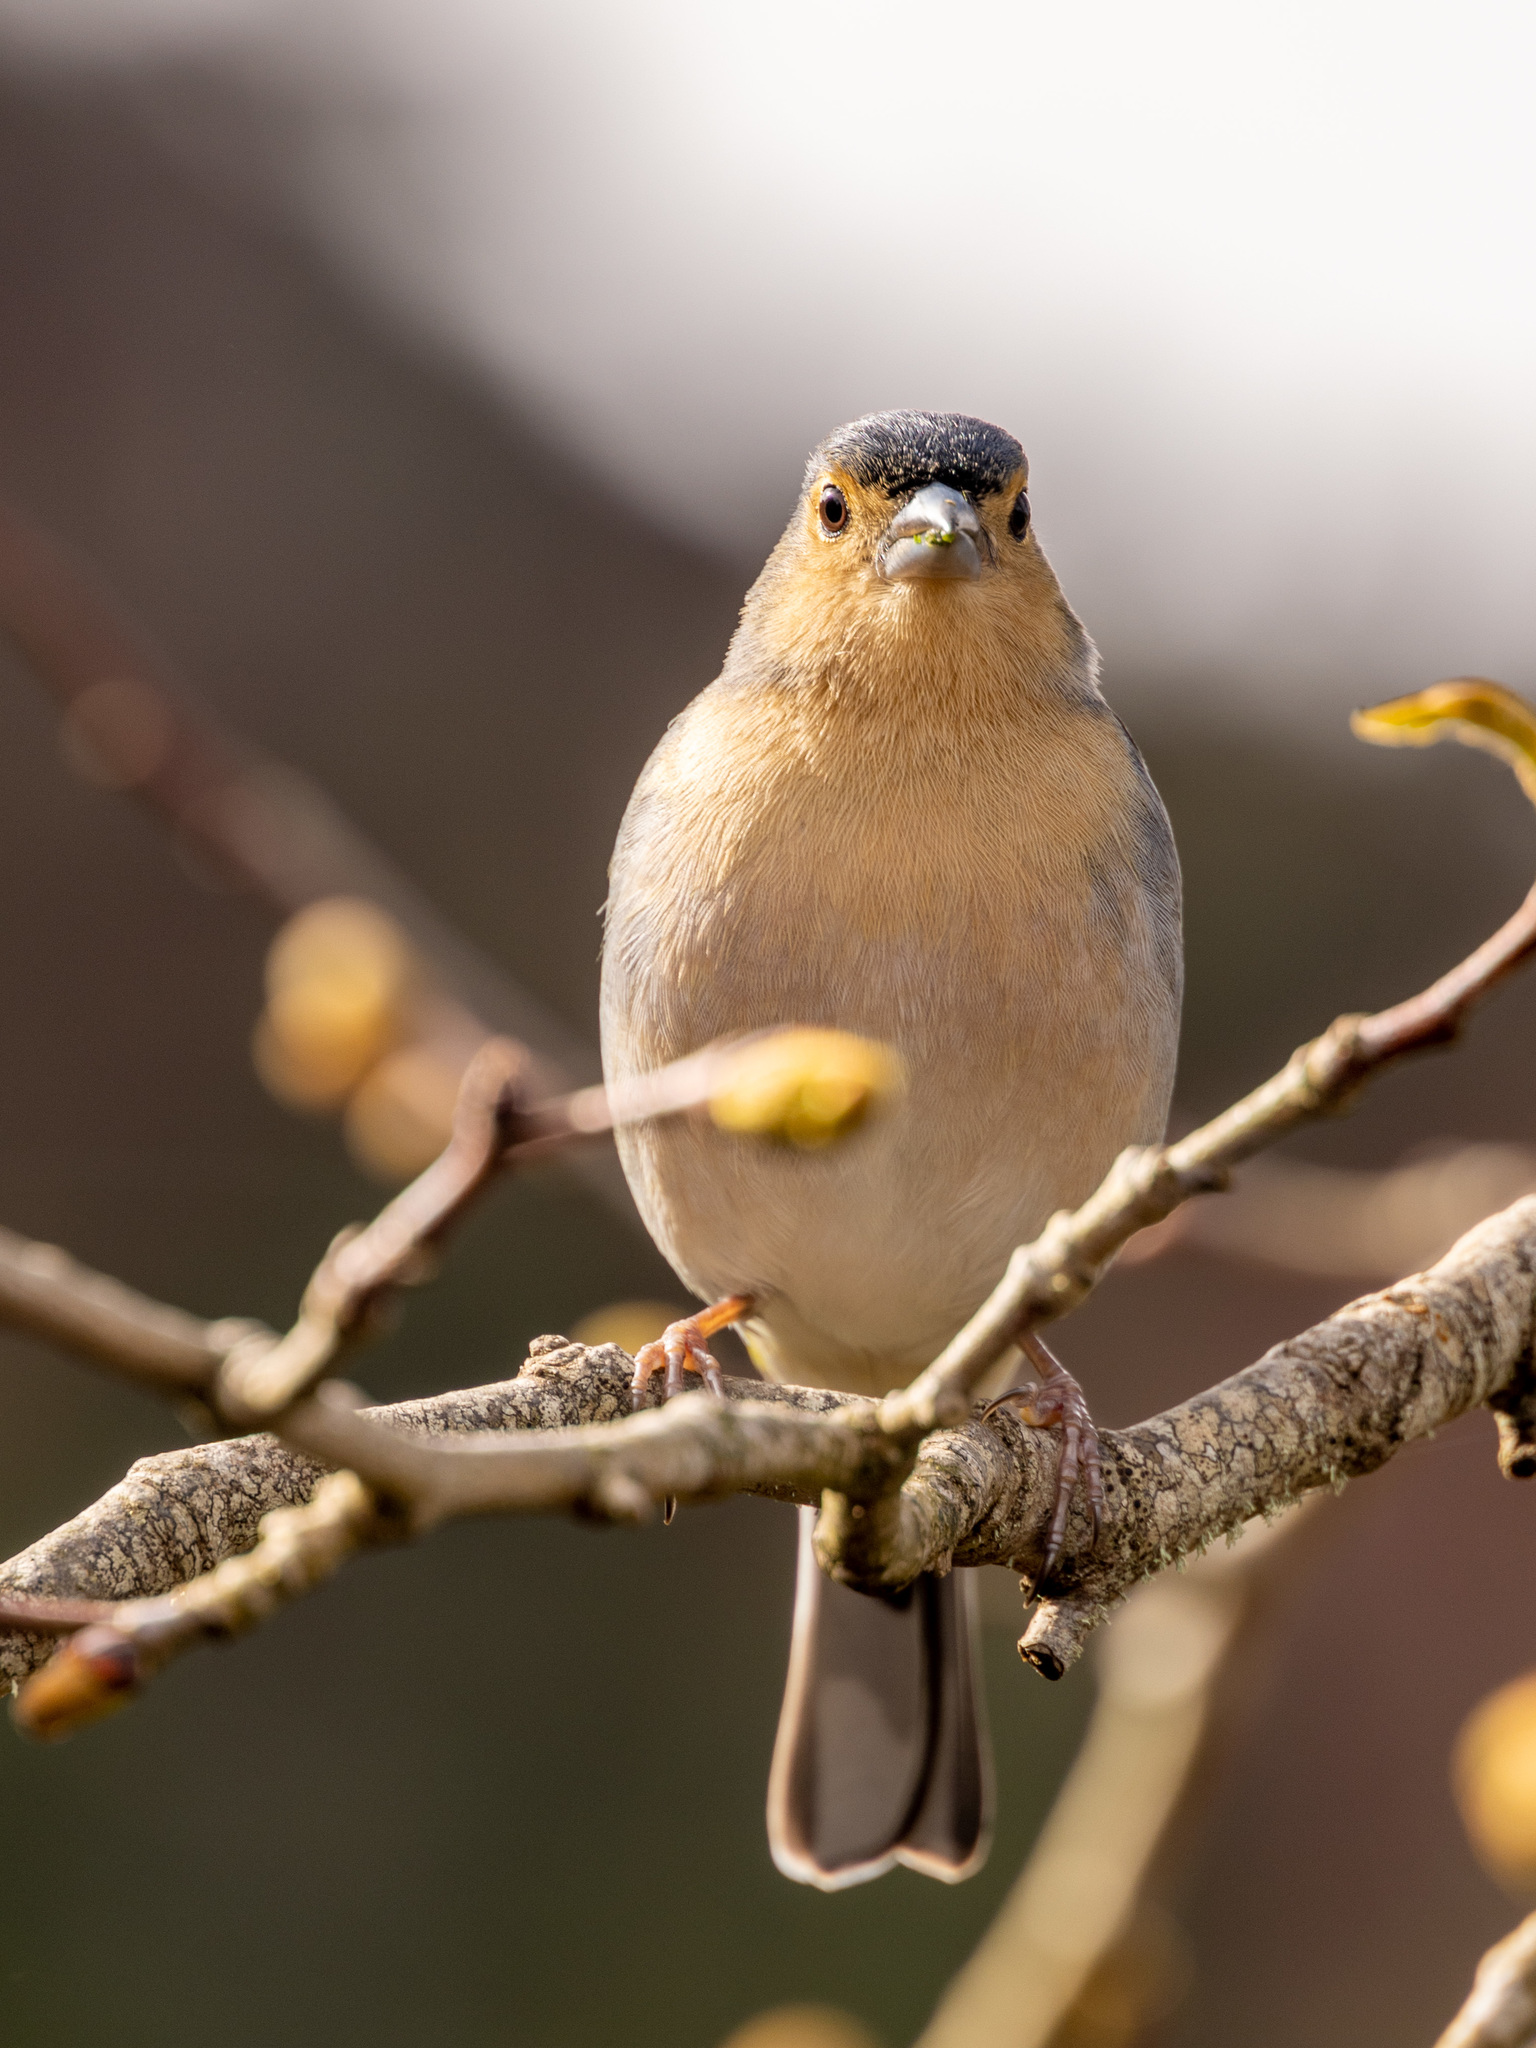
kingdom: Animalia
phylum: Chordata
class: Aves
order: Passeriformes
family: Fringillidae
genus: Fringilla
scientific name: Fringilla maderensis
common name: Madeira chaffinch
